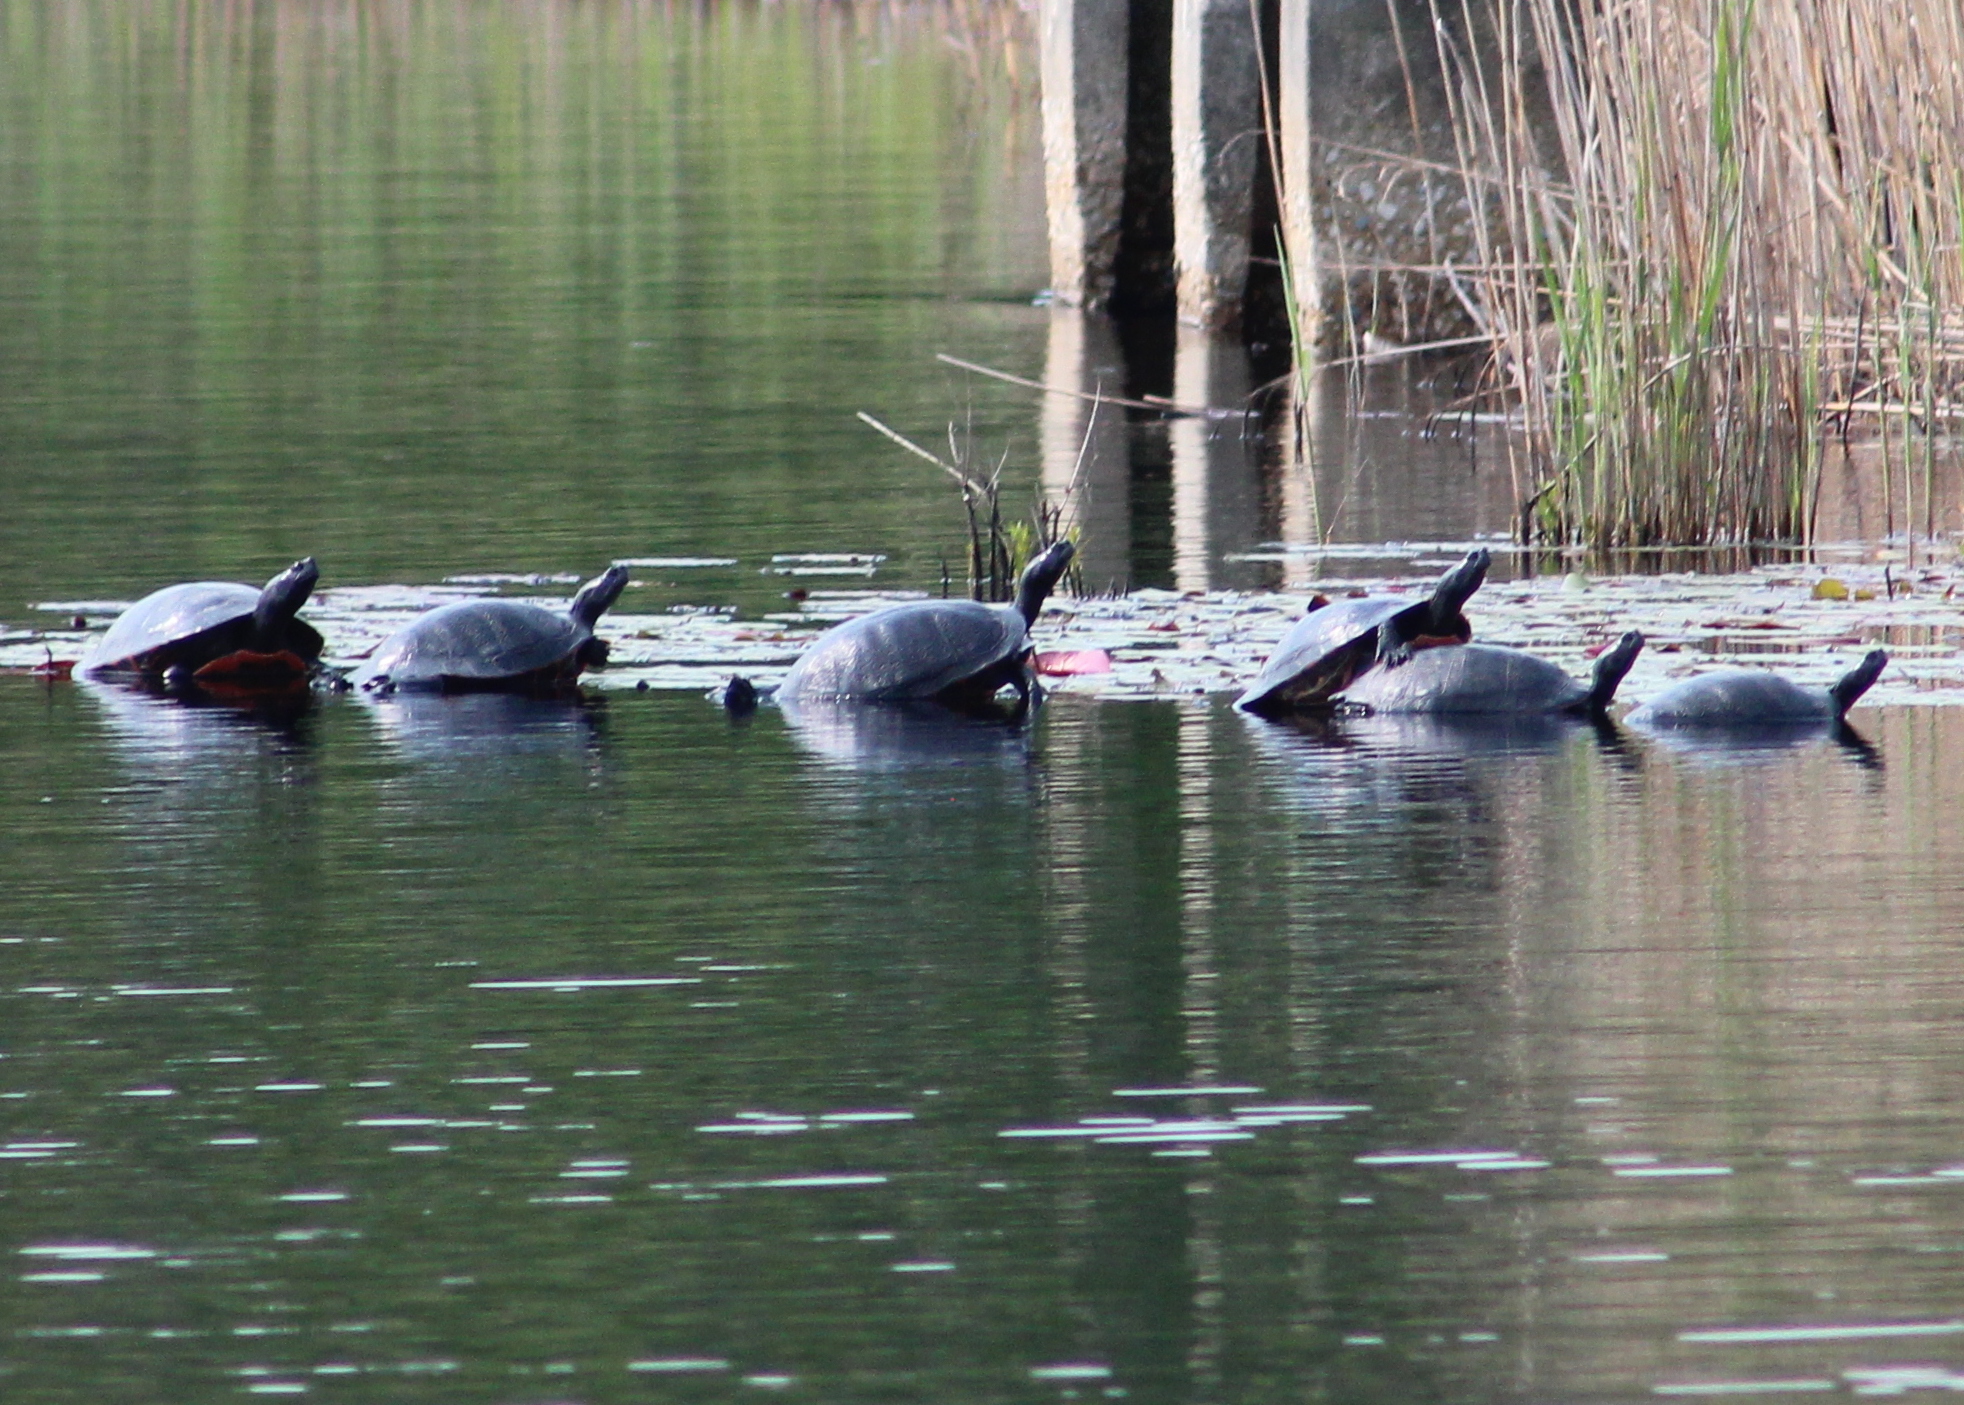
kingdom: Animalia
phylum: Chordata
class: Testudines
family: Emydidae
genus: Pseudemys
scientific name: Pseudemys rubriventris
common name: American red-bellied turtle
